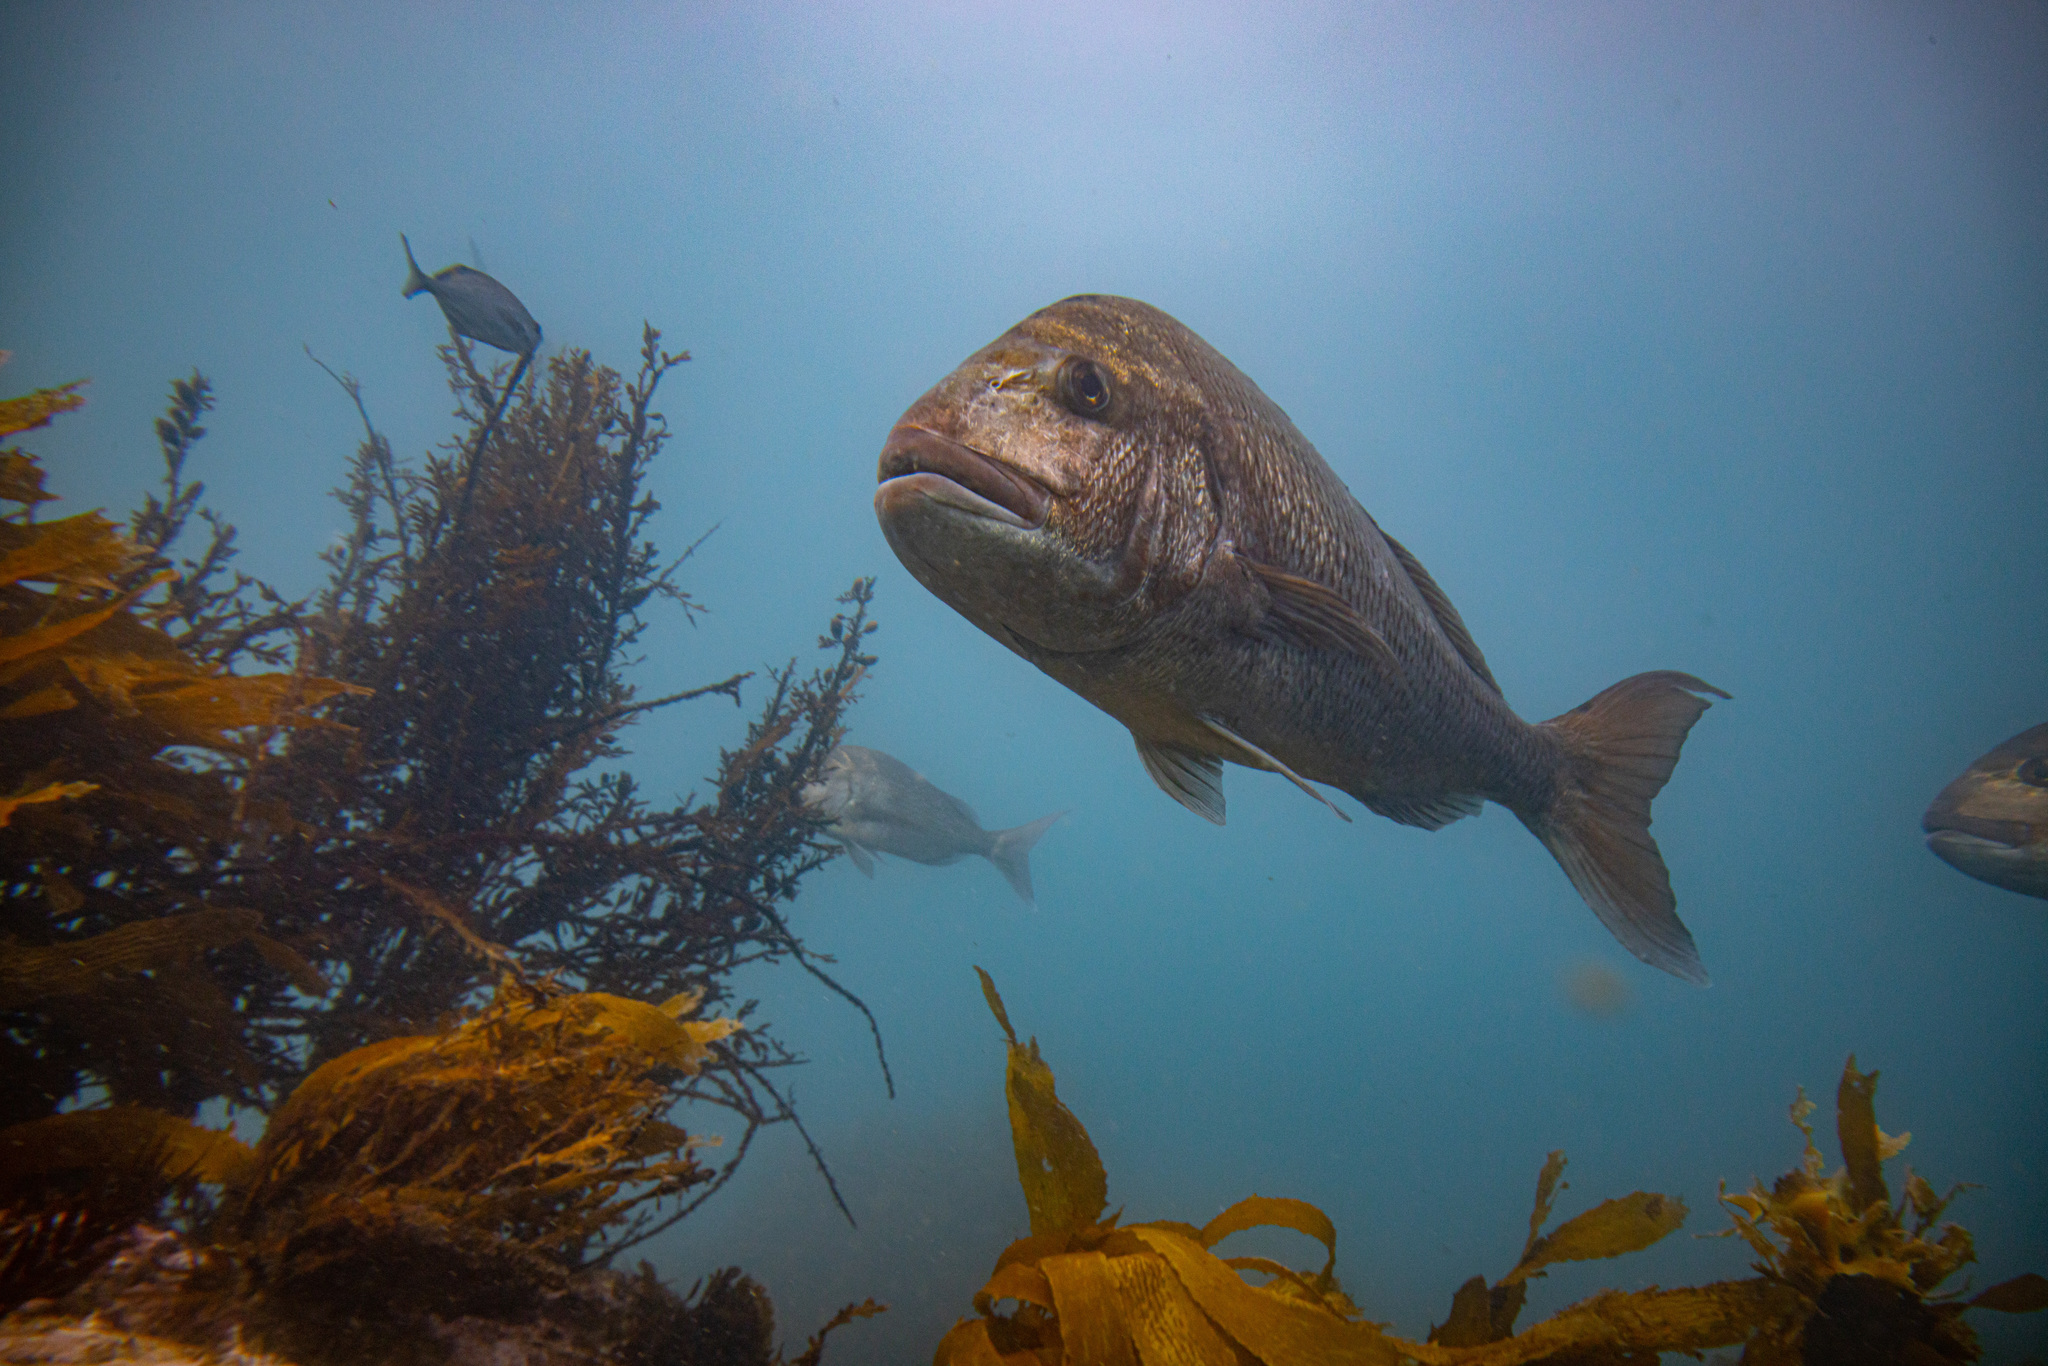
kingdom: Animalia
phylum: Chordata
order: Perciformes
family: Sparidae
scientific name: Sparidae
